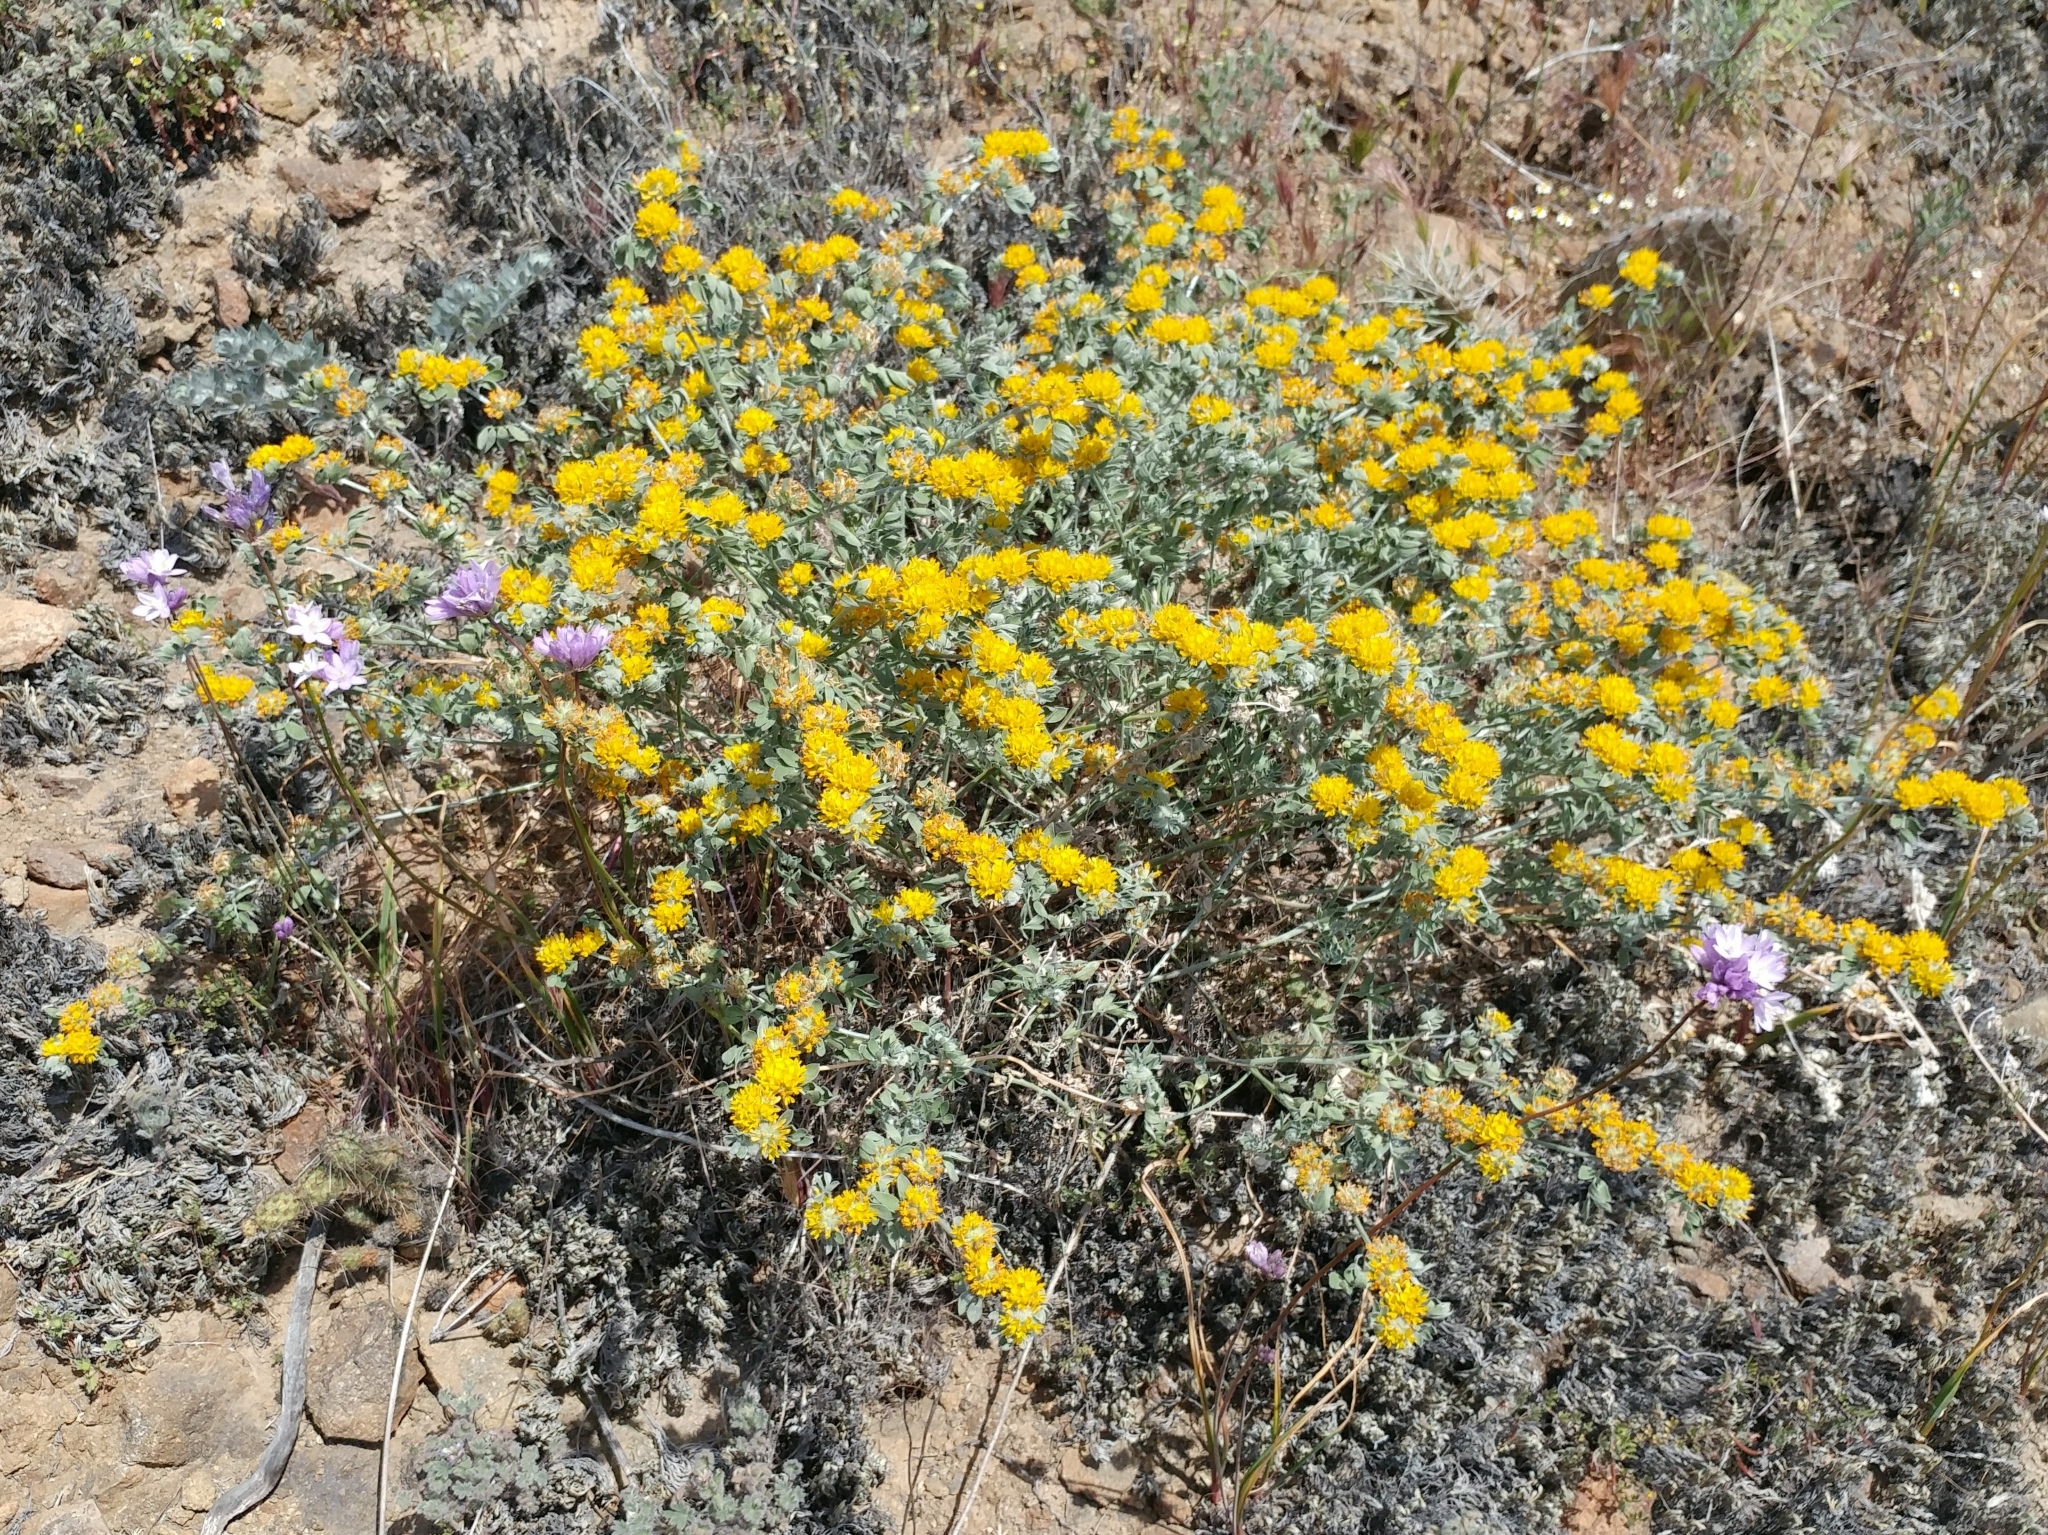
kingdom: Plantae
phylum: Tracheophyta
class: Magnoliopsida
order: Fabales
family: Fabaceae
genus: Acmispon
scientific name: Acmispon argophyllus
